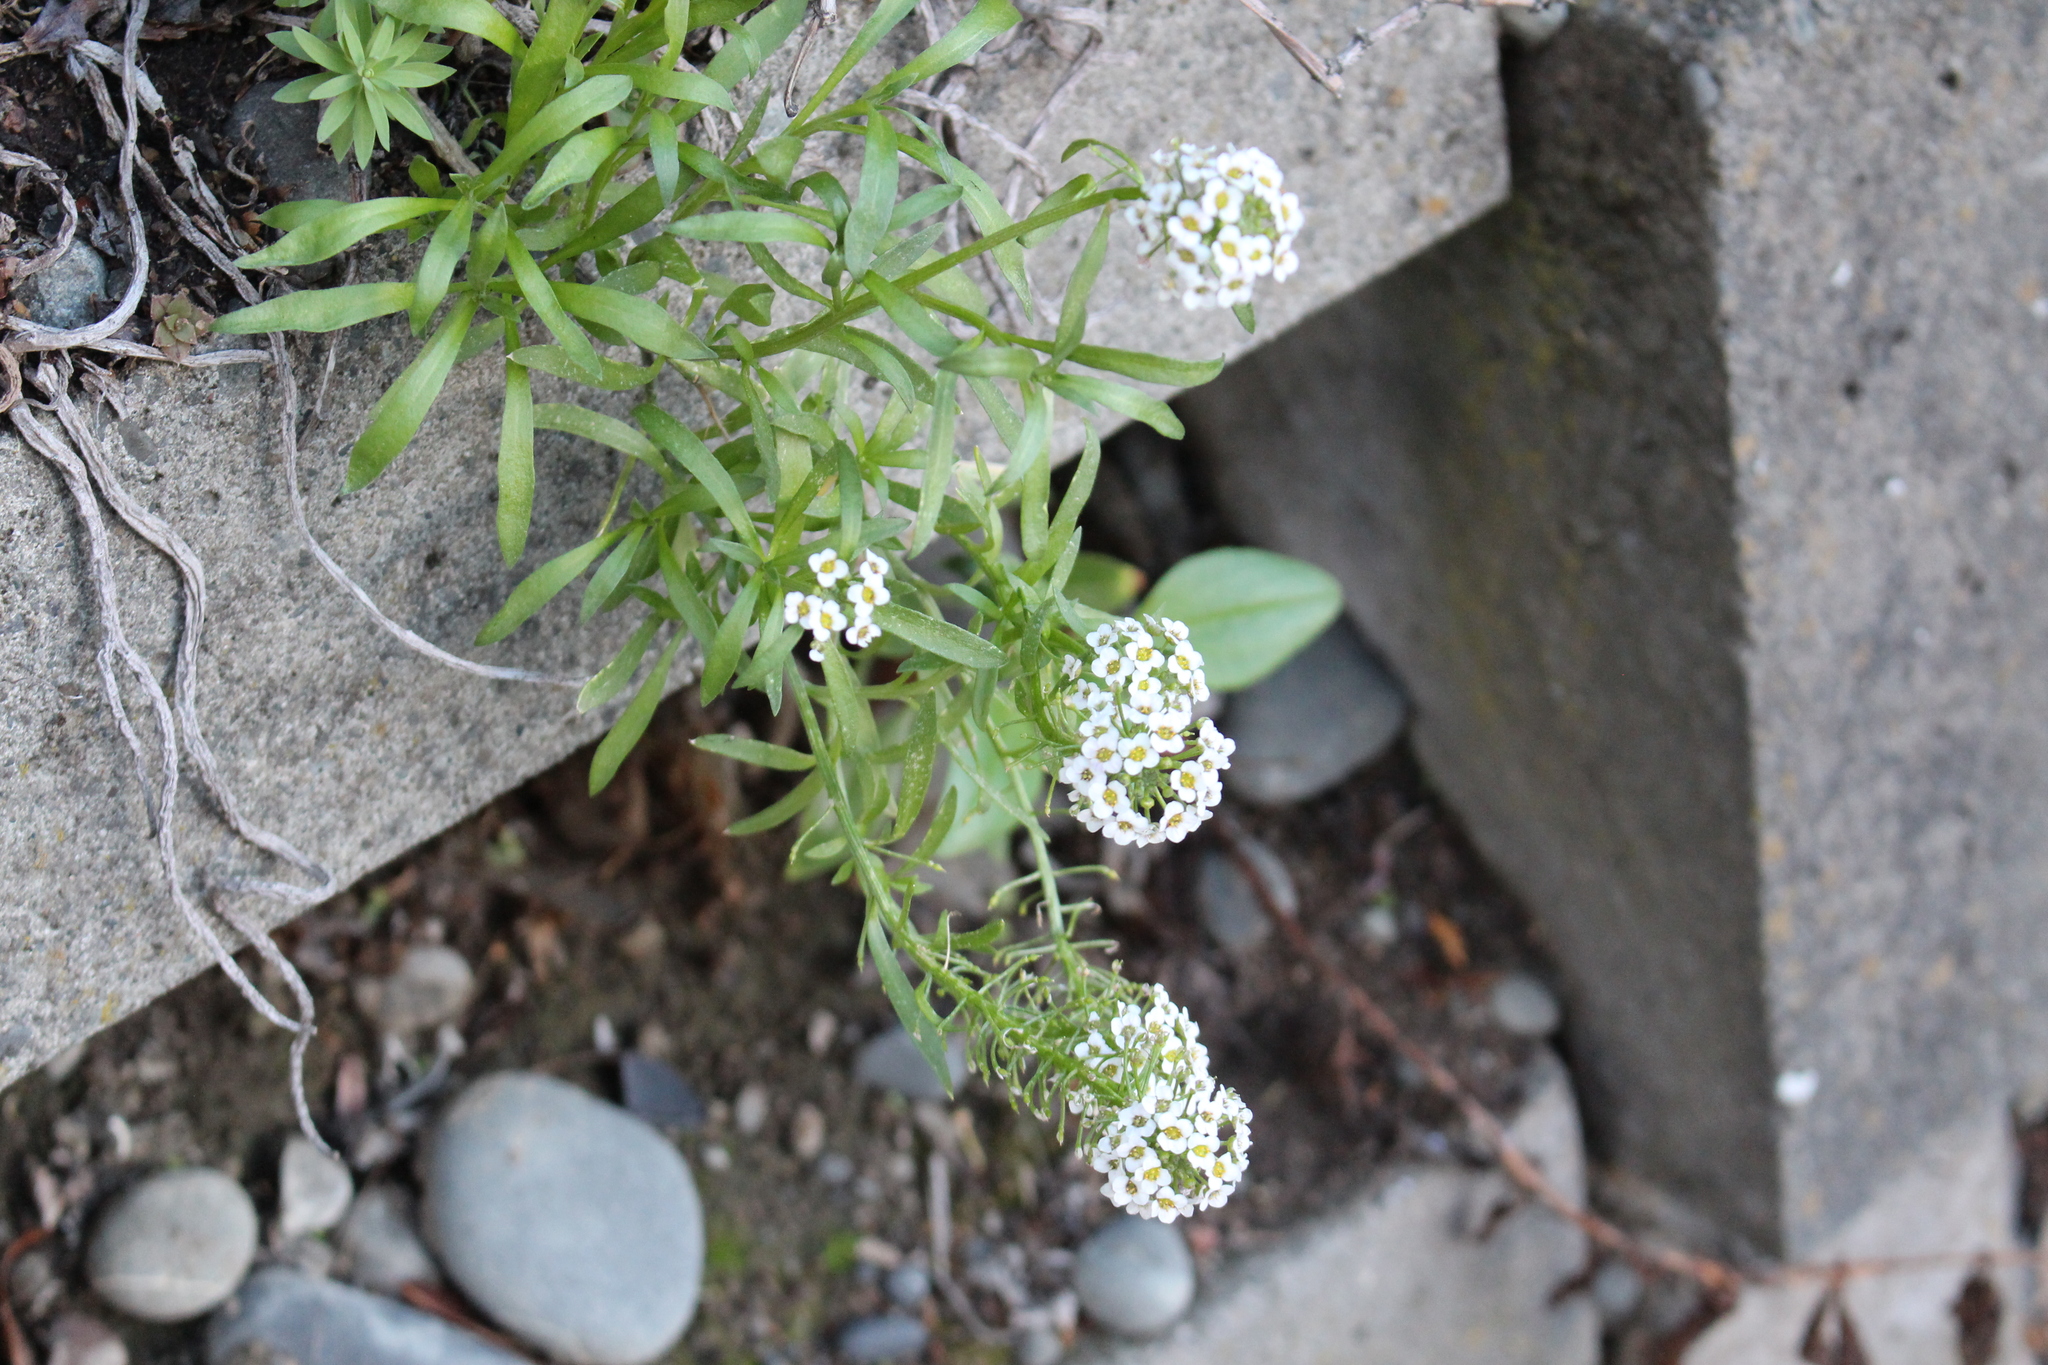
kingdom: Plantae
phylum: Tracheophyta
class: Magnoliopsida
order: Brassicales
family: Brassicaceae
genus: Lobularia
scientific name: Lobularia maritima
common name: Sweet alison
